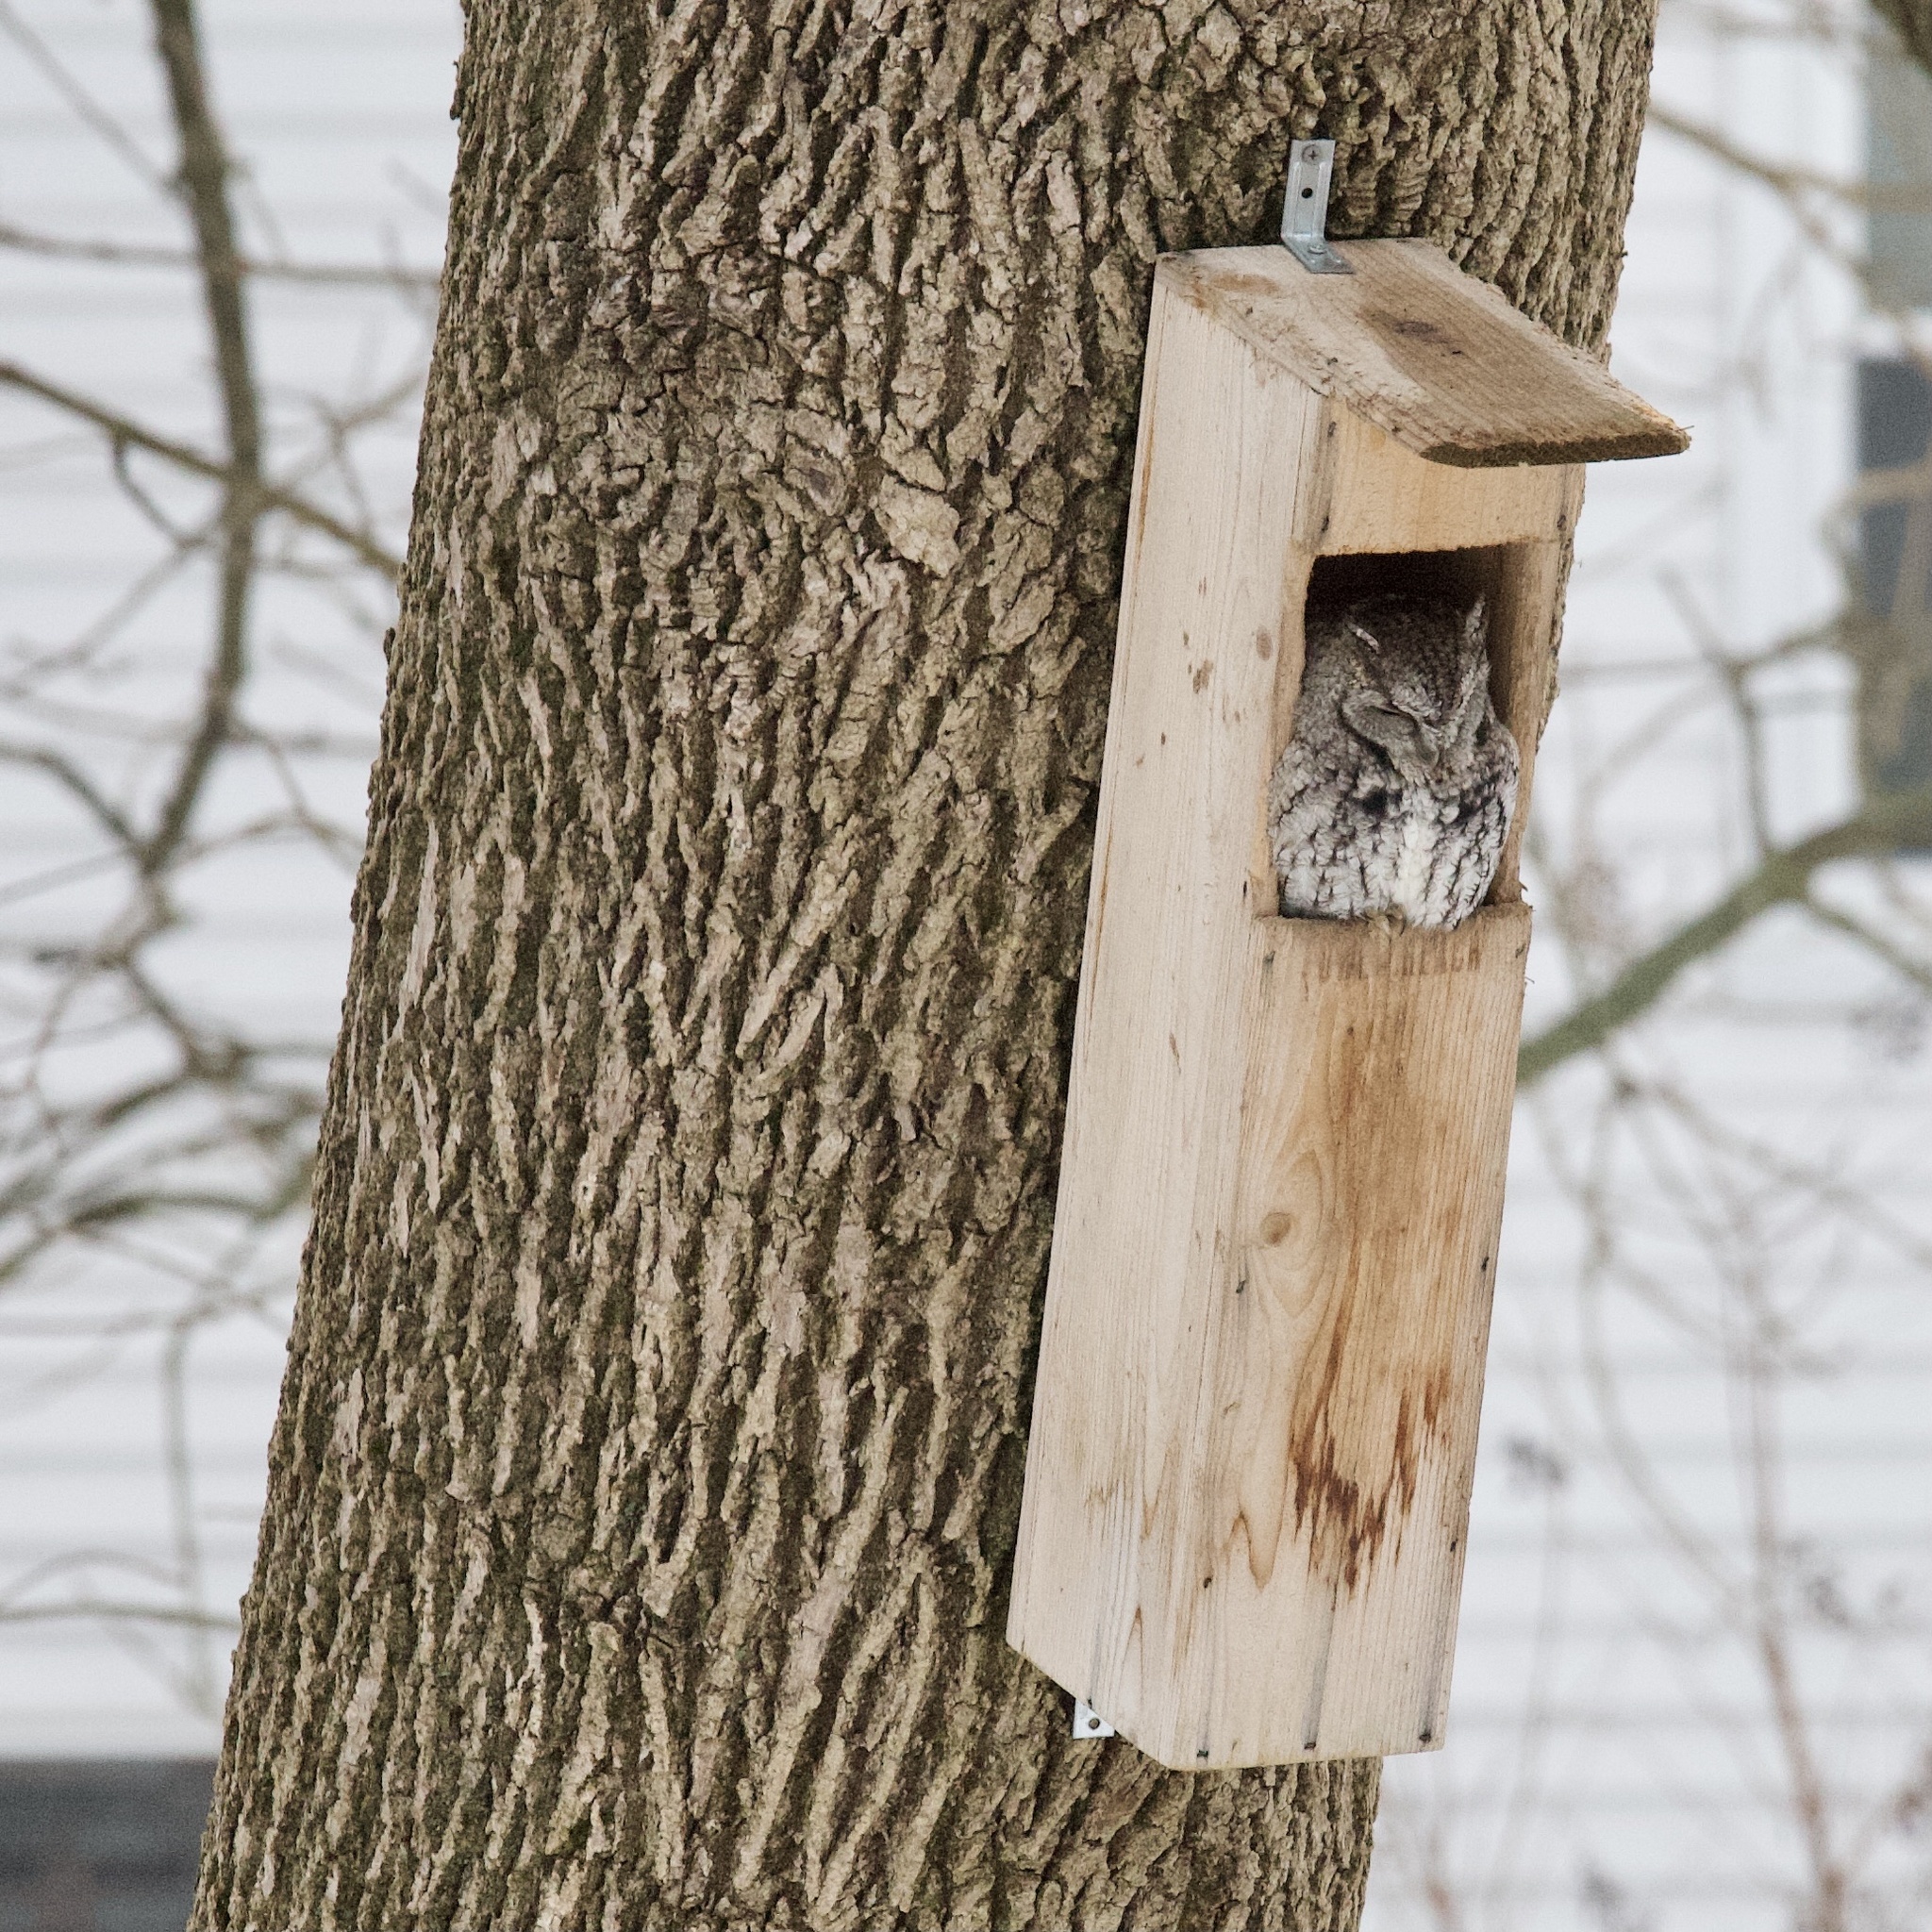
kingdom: Animalia
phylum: Chordata
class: Aves
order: Strigiformes
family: Strigidae
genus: Megascops
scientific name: Megascops asio
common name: Eastern screech-owl
